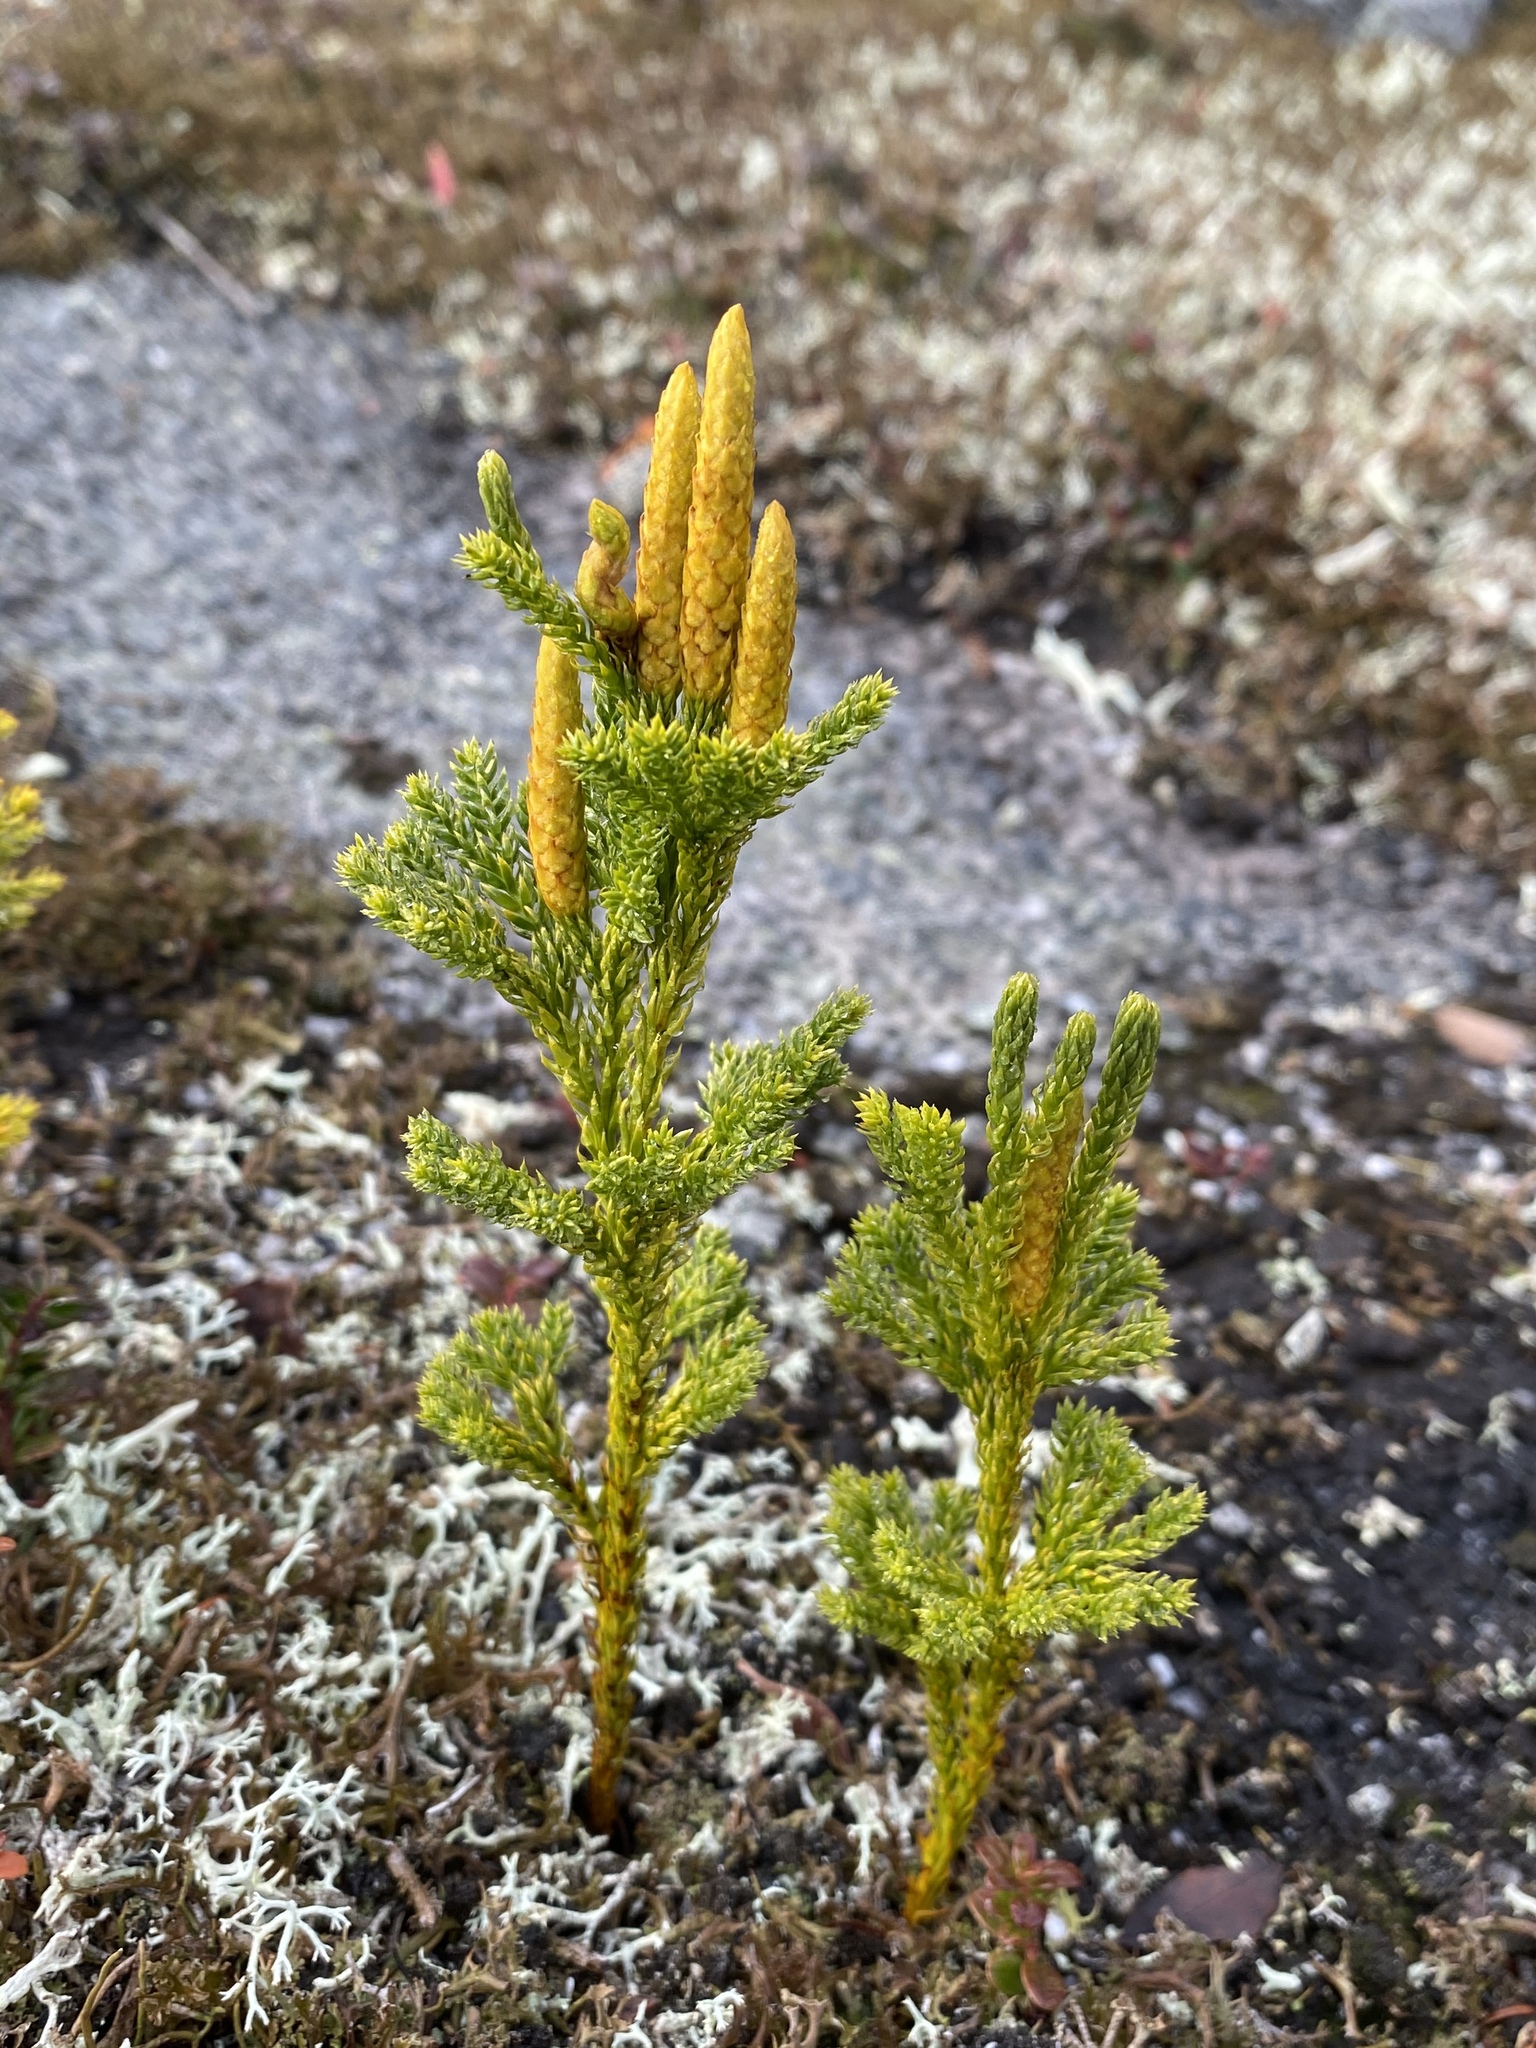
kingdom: Plantae
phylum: Tracheophyta
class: Lycopodiopsida
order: Lycopodiales
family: Lycopodiaceae
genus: Dendrolycopodium
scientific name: Dendrolycopodium hickeyi
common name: Hickey's clubmoss
